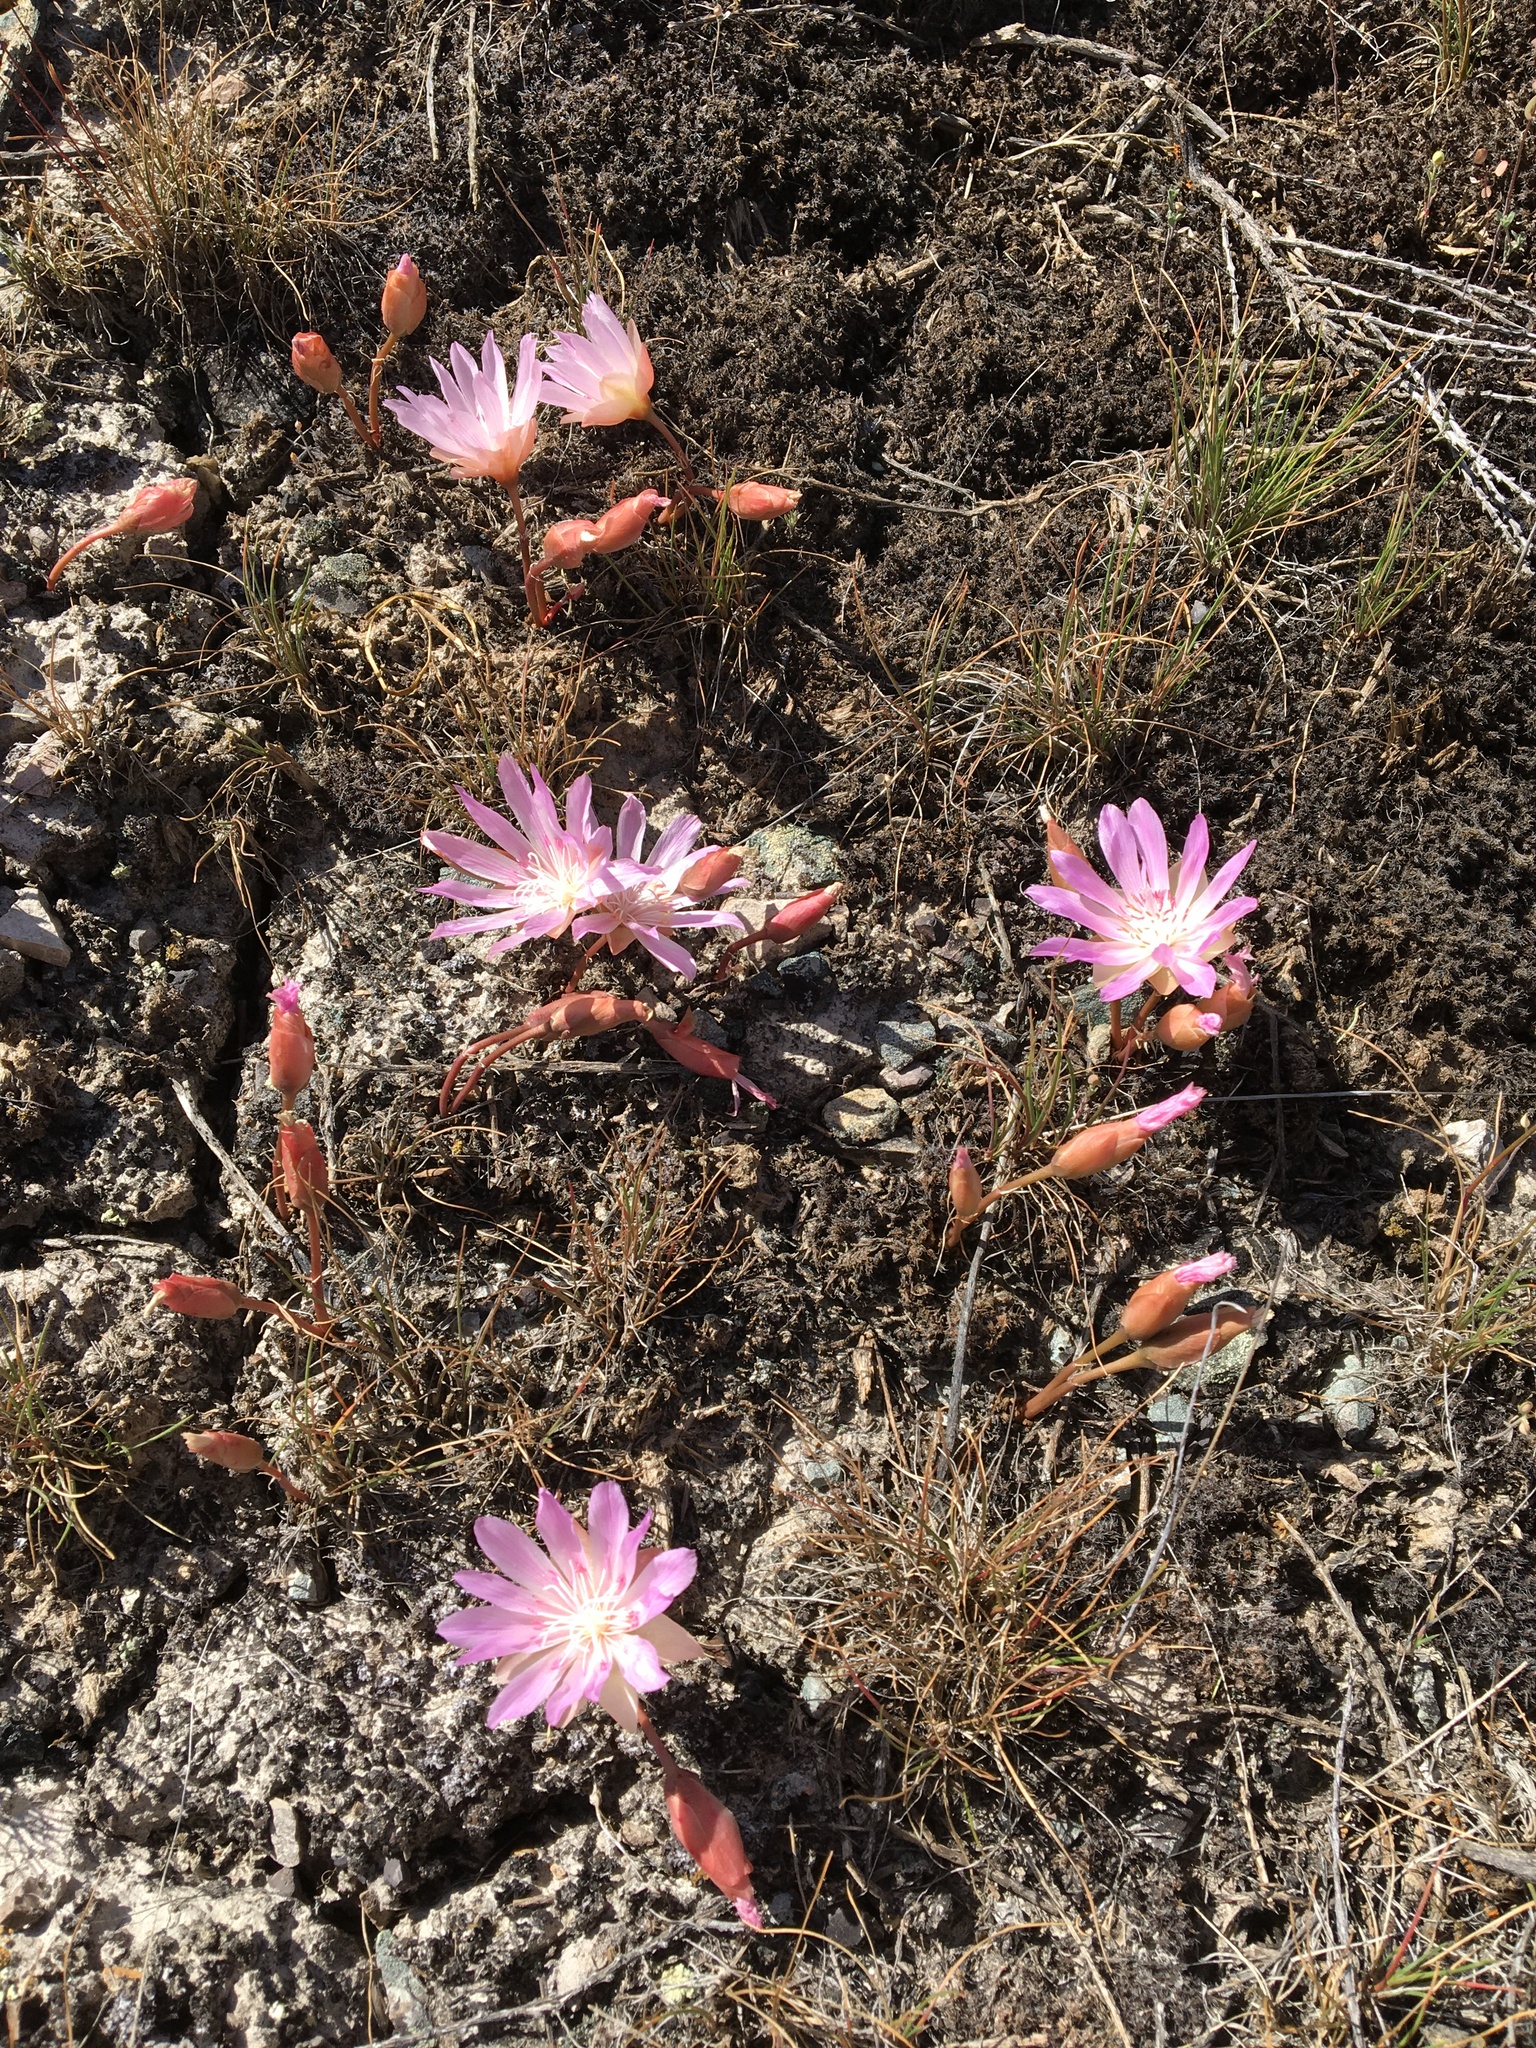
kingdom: Plantae
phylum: Tracheophyta
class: Magnoliopsida
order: Caryophyllales
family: Montiaceae
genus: Lewisia
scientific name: Lewisia rediviva
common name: Bitter-root
